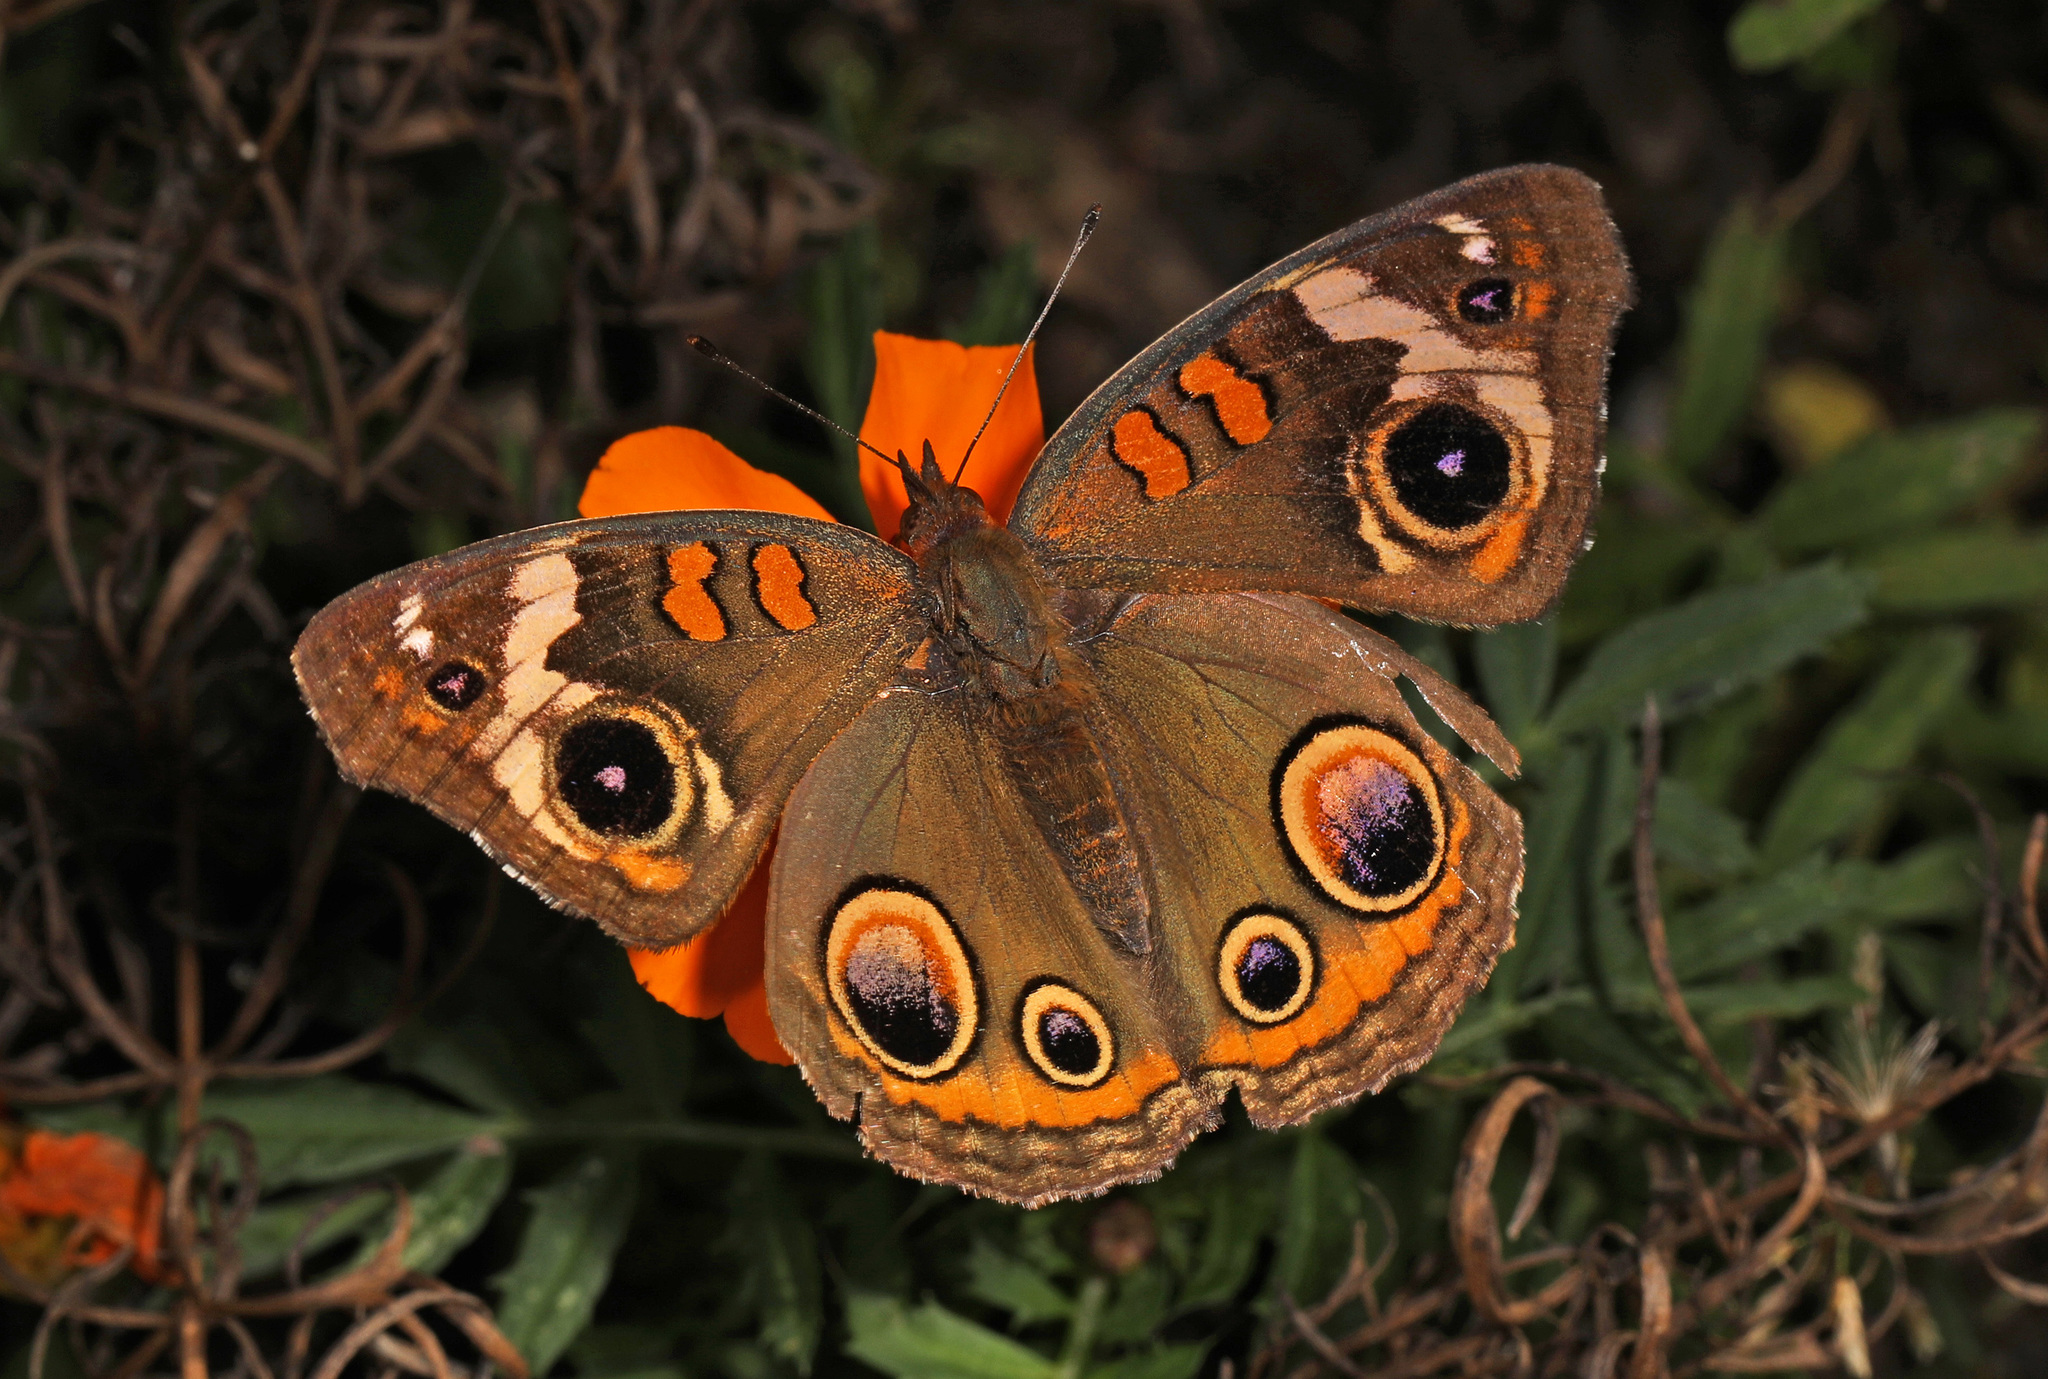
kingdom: Animalia
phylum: Arthropoda
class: Insecta
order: Lepidoptera
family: Nymphalidae
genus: Junonia
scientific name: Junonia coenia
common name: Common buckeye
